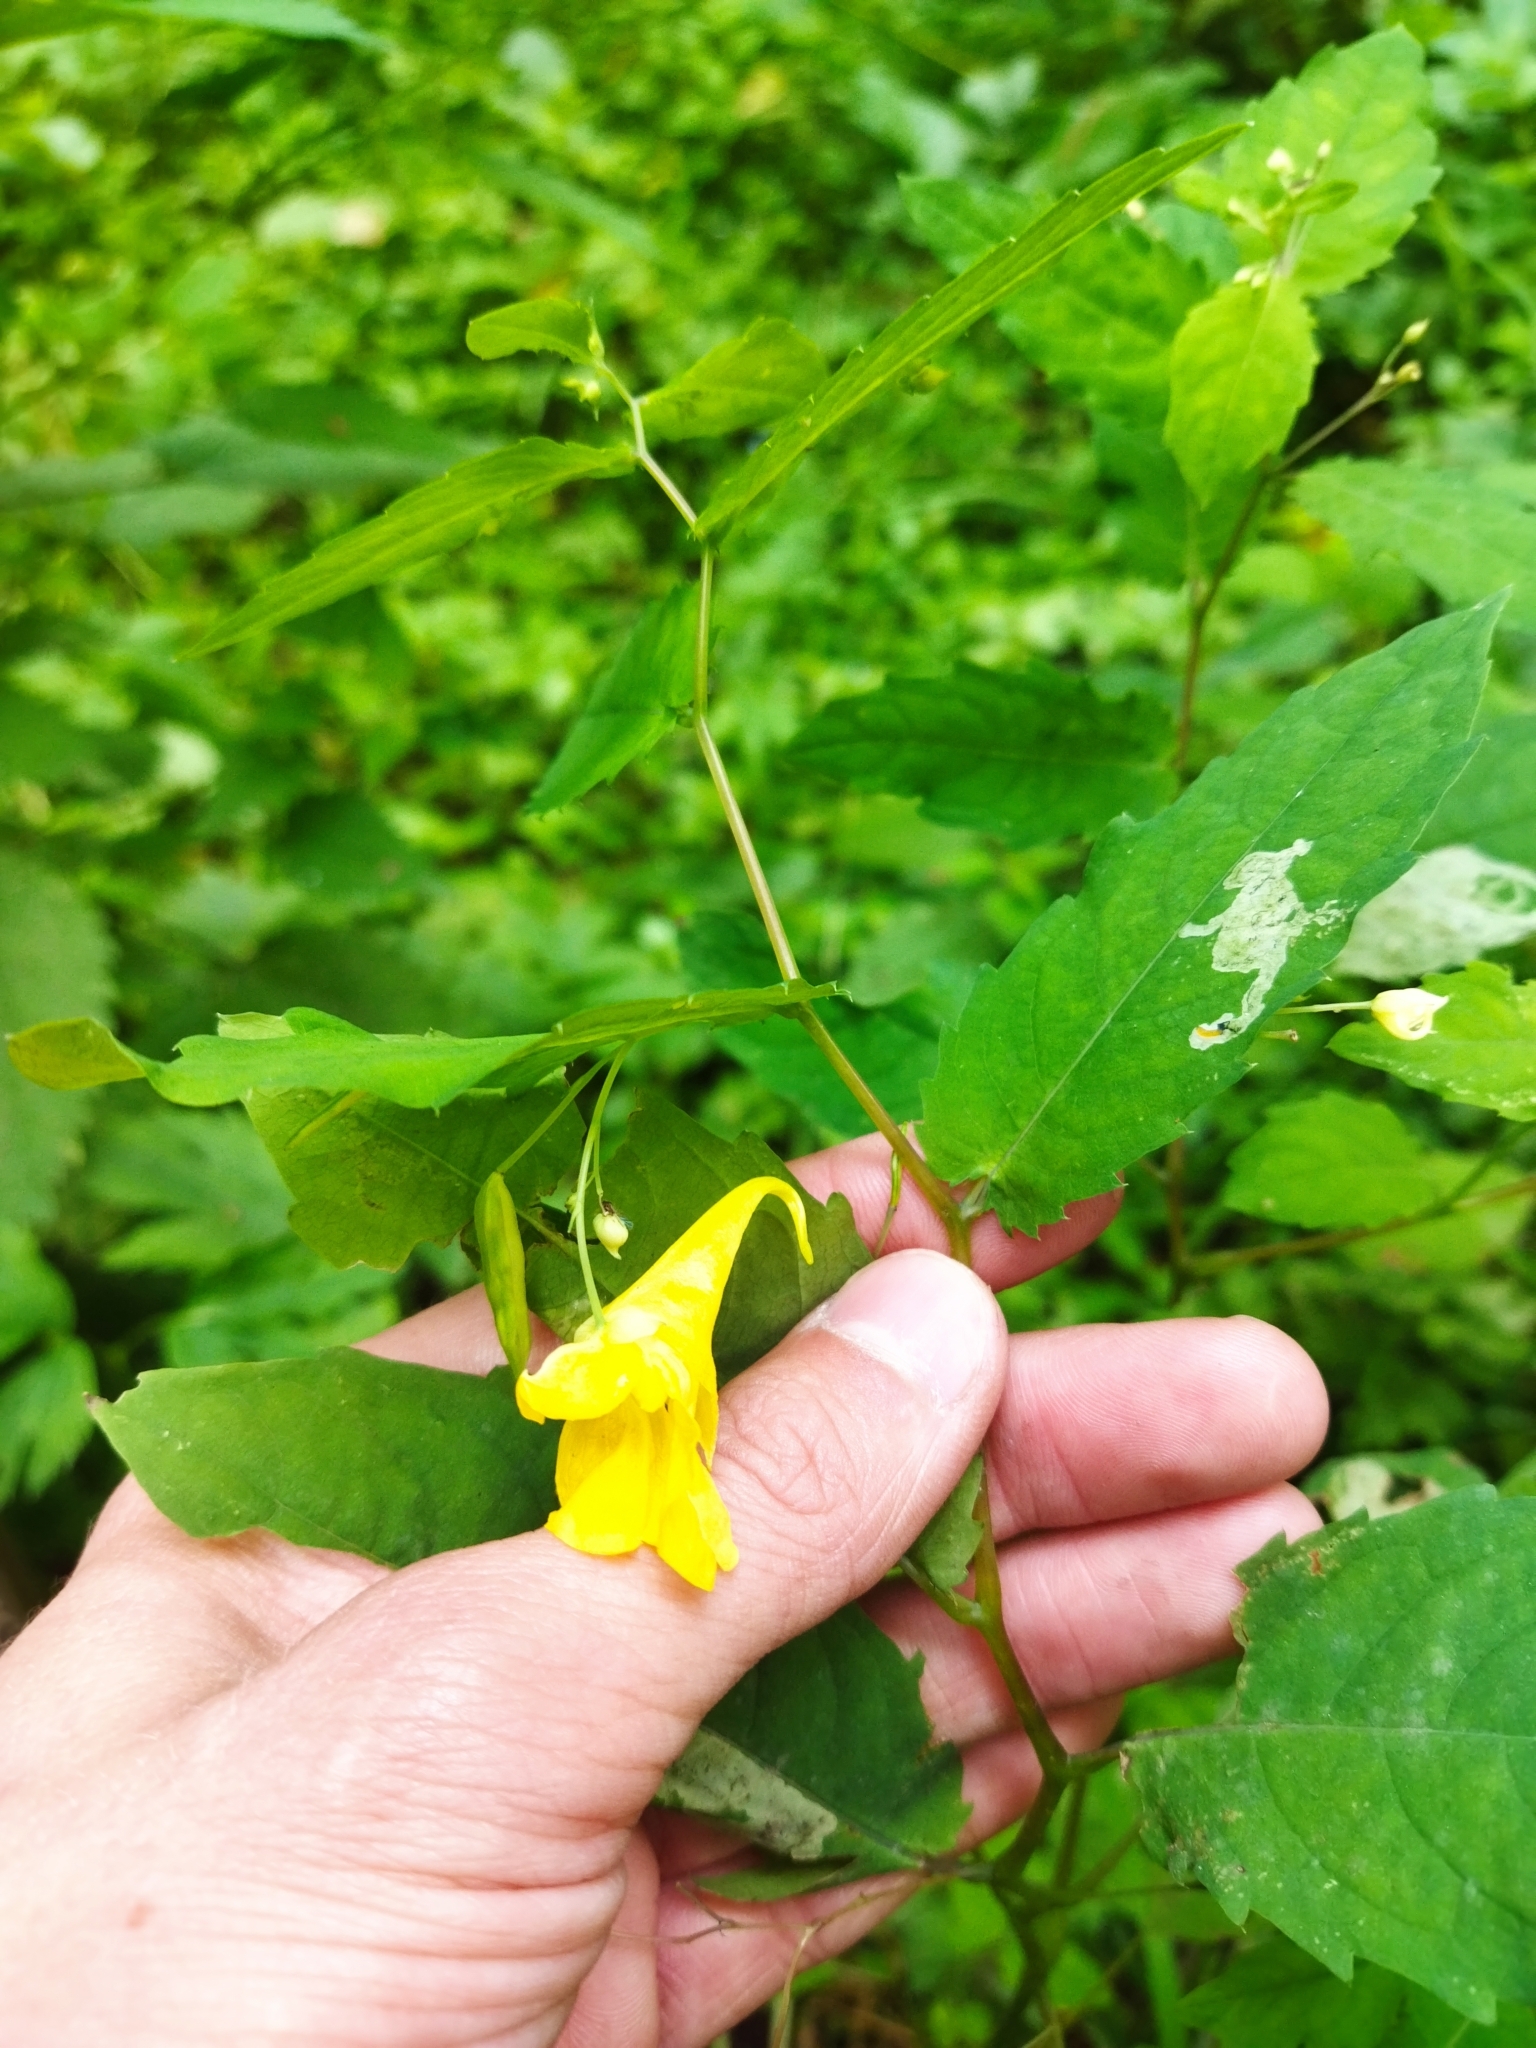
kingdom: Plantae
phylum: Tracheophyta
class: Magnoliopsida
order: Ericales
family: Balsaminaceae
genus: Impatiens
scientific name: Impatiens noli-tangere
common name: Touch-me-not balsam
